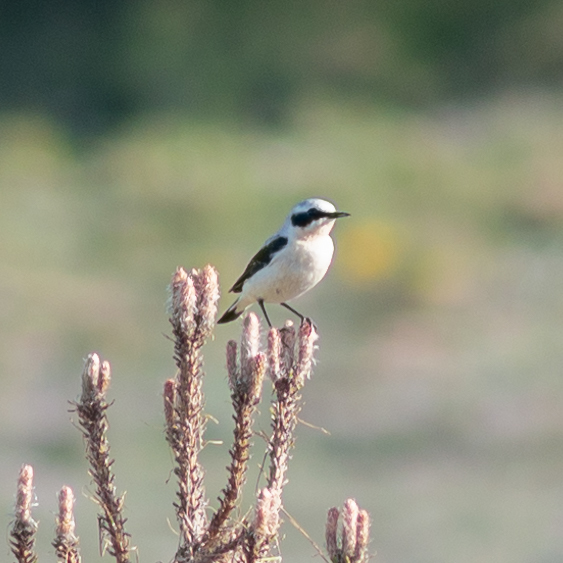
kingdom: Animalia
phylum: Chordata
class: Aves
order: Passeriformes
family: Muscicapidae
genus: Oenanthe
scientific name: Oenanthe oenanthe
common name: Northern wheatear
